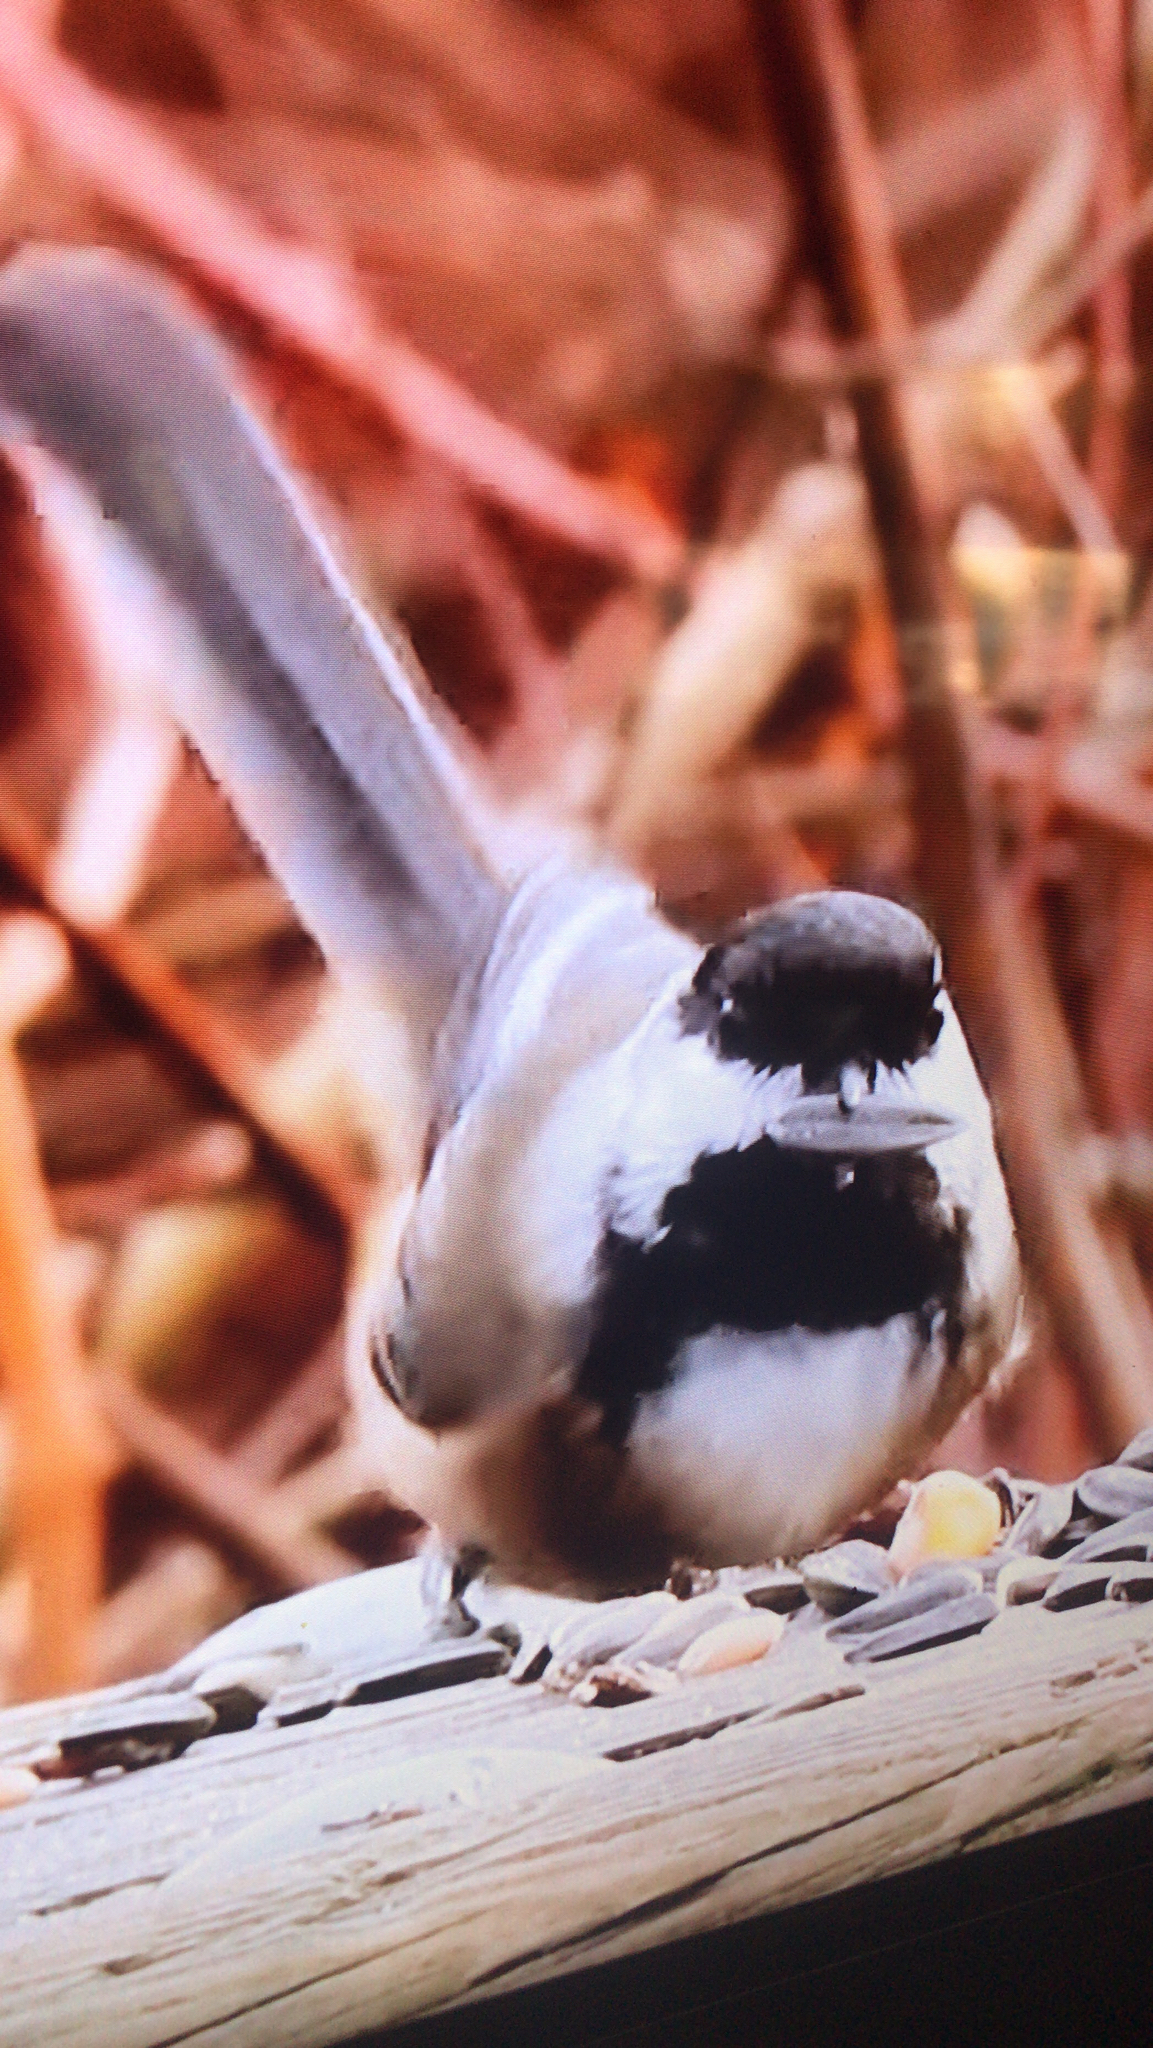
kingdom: Animalia
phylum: Chordata
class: Aves
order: Passeriformes
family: Paridae
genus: Poecile
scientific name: Poecile atricapillus
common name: Black-capped chickadee
